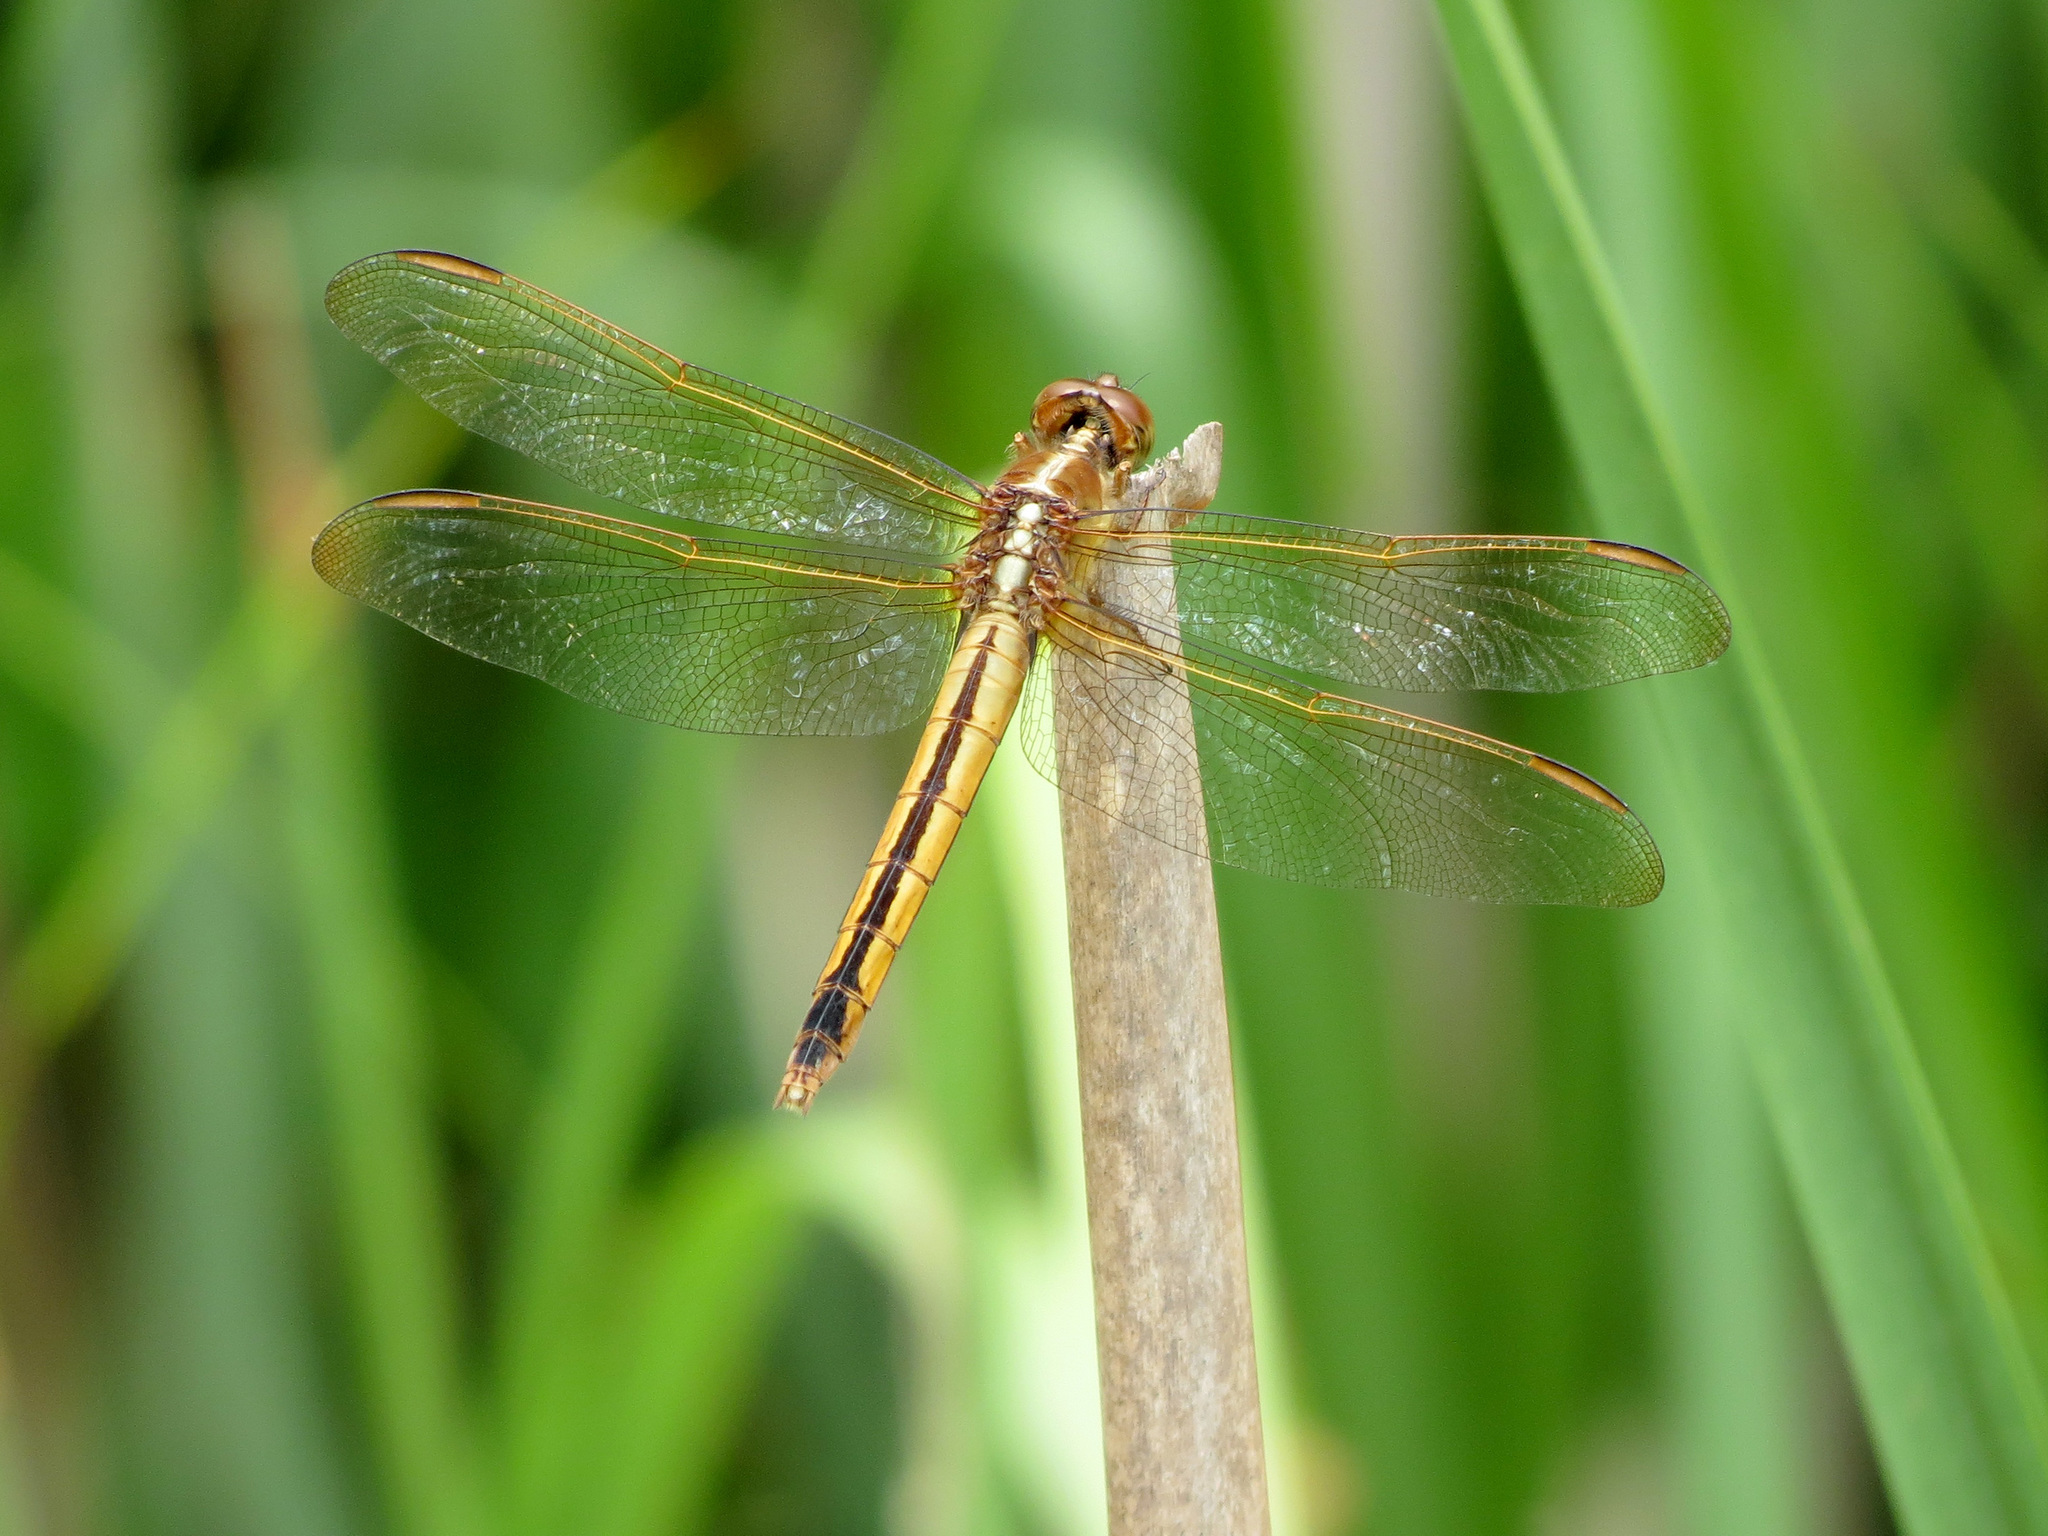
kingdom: Animalia
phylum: Arthropoda
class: Insecta
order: Odonata
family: Libellulidae
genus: Libellula
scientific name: Libellula needhami
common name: Needham's skimmer
